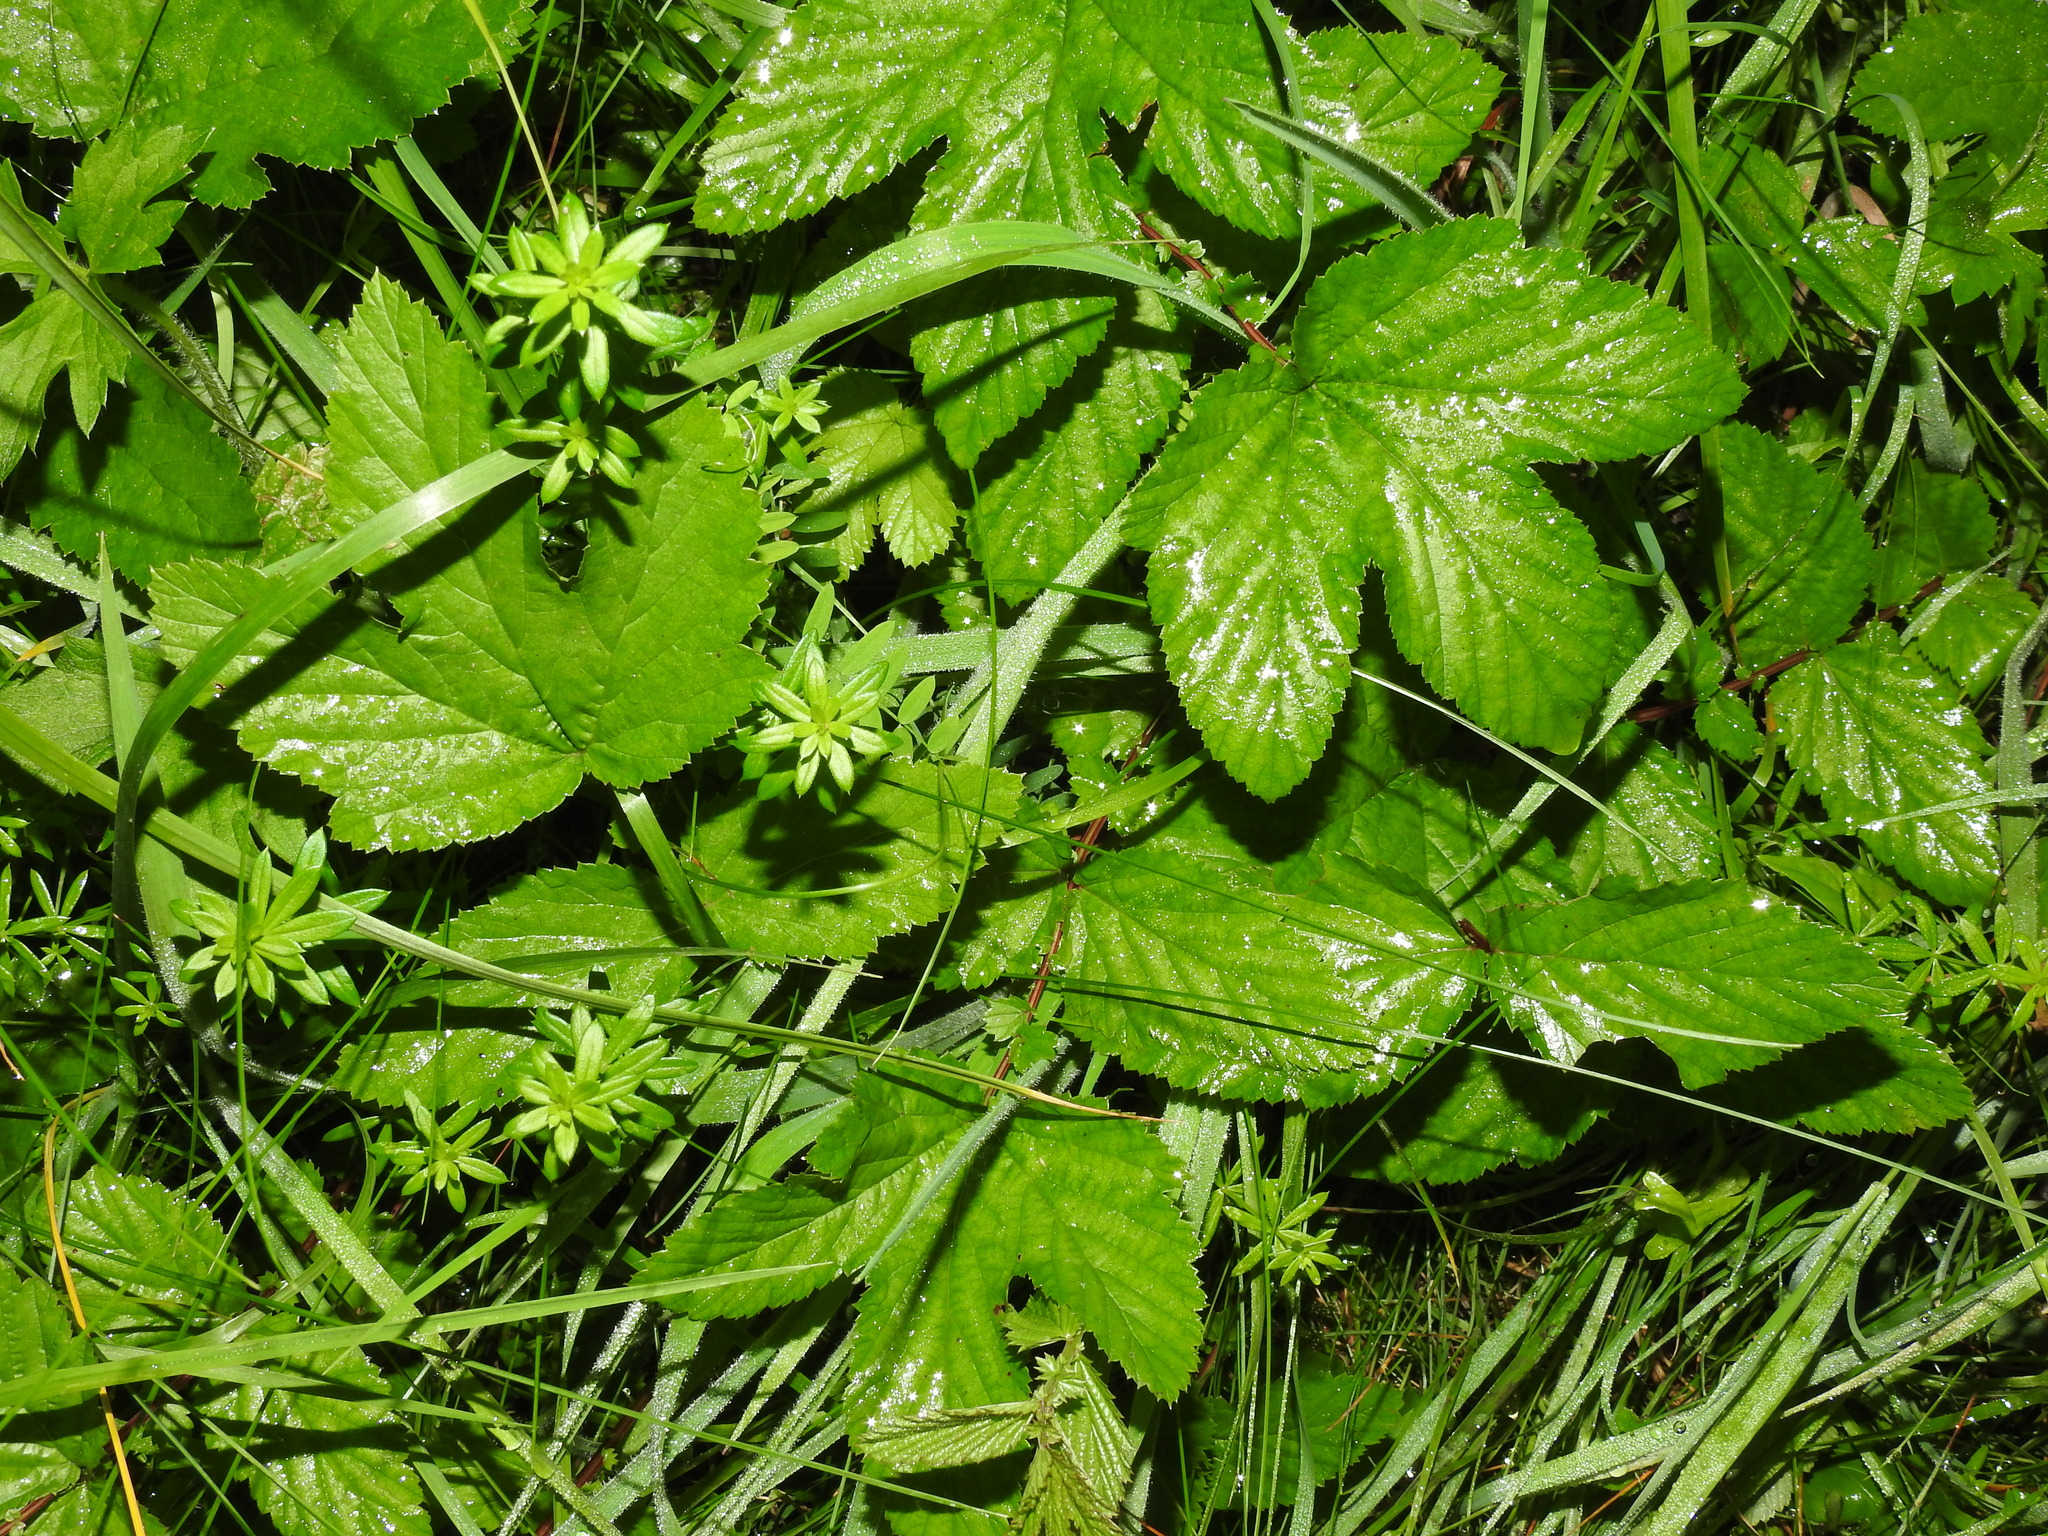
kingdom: Plantae
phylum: Tracheophyta
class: Magnoliopsida
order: Rosales
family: Rosaceae
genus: Filipendula
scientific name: Filipendula ulmaria
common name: Meadowsweet
